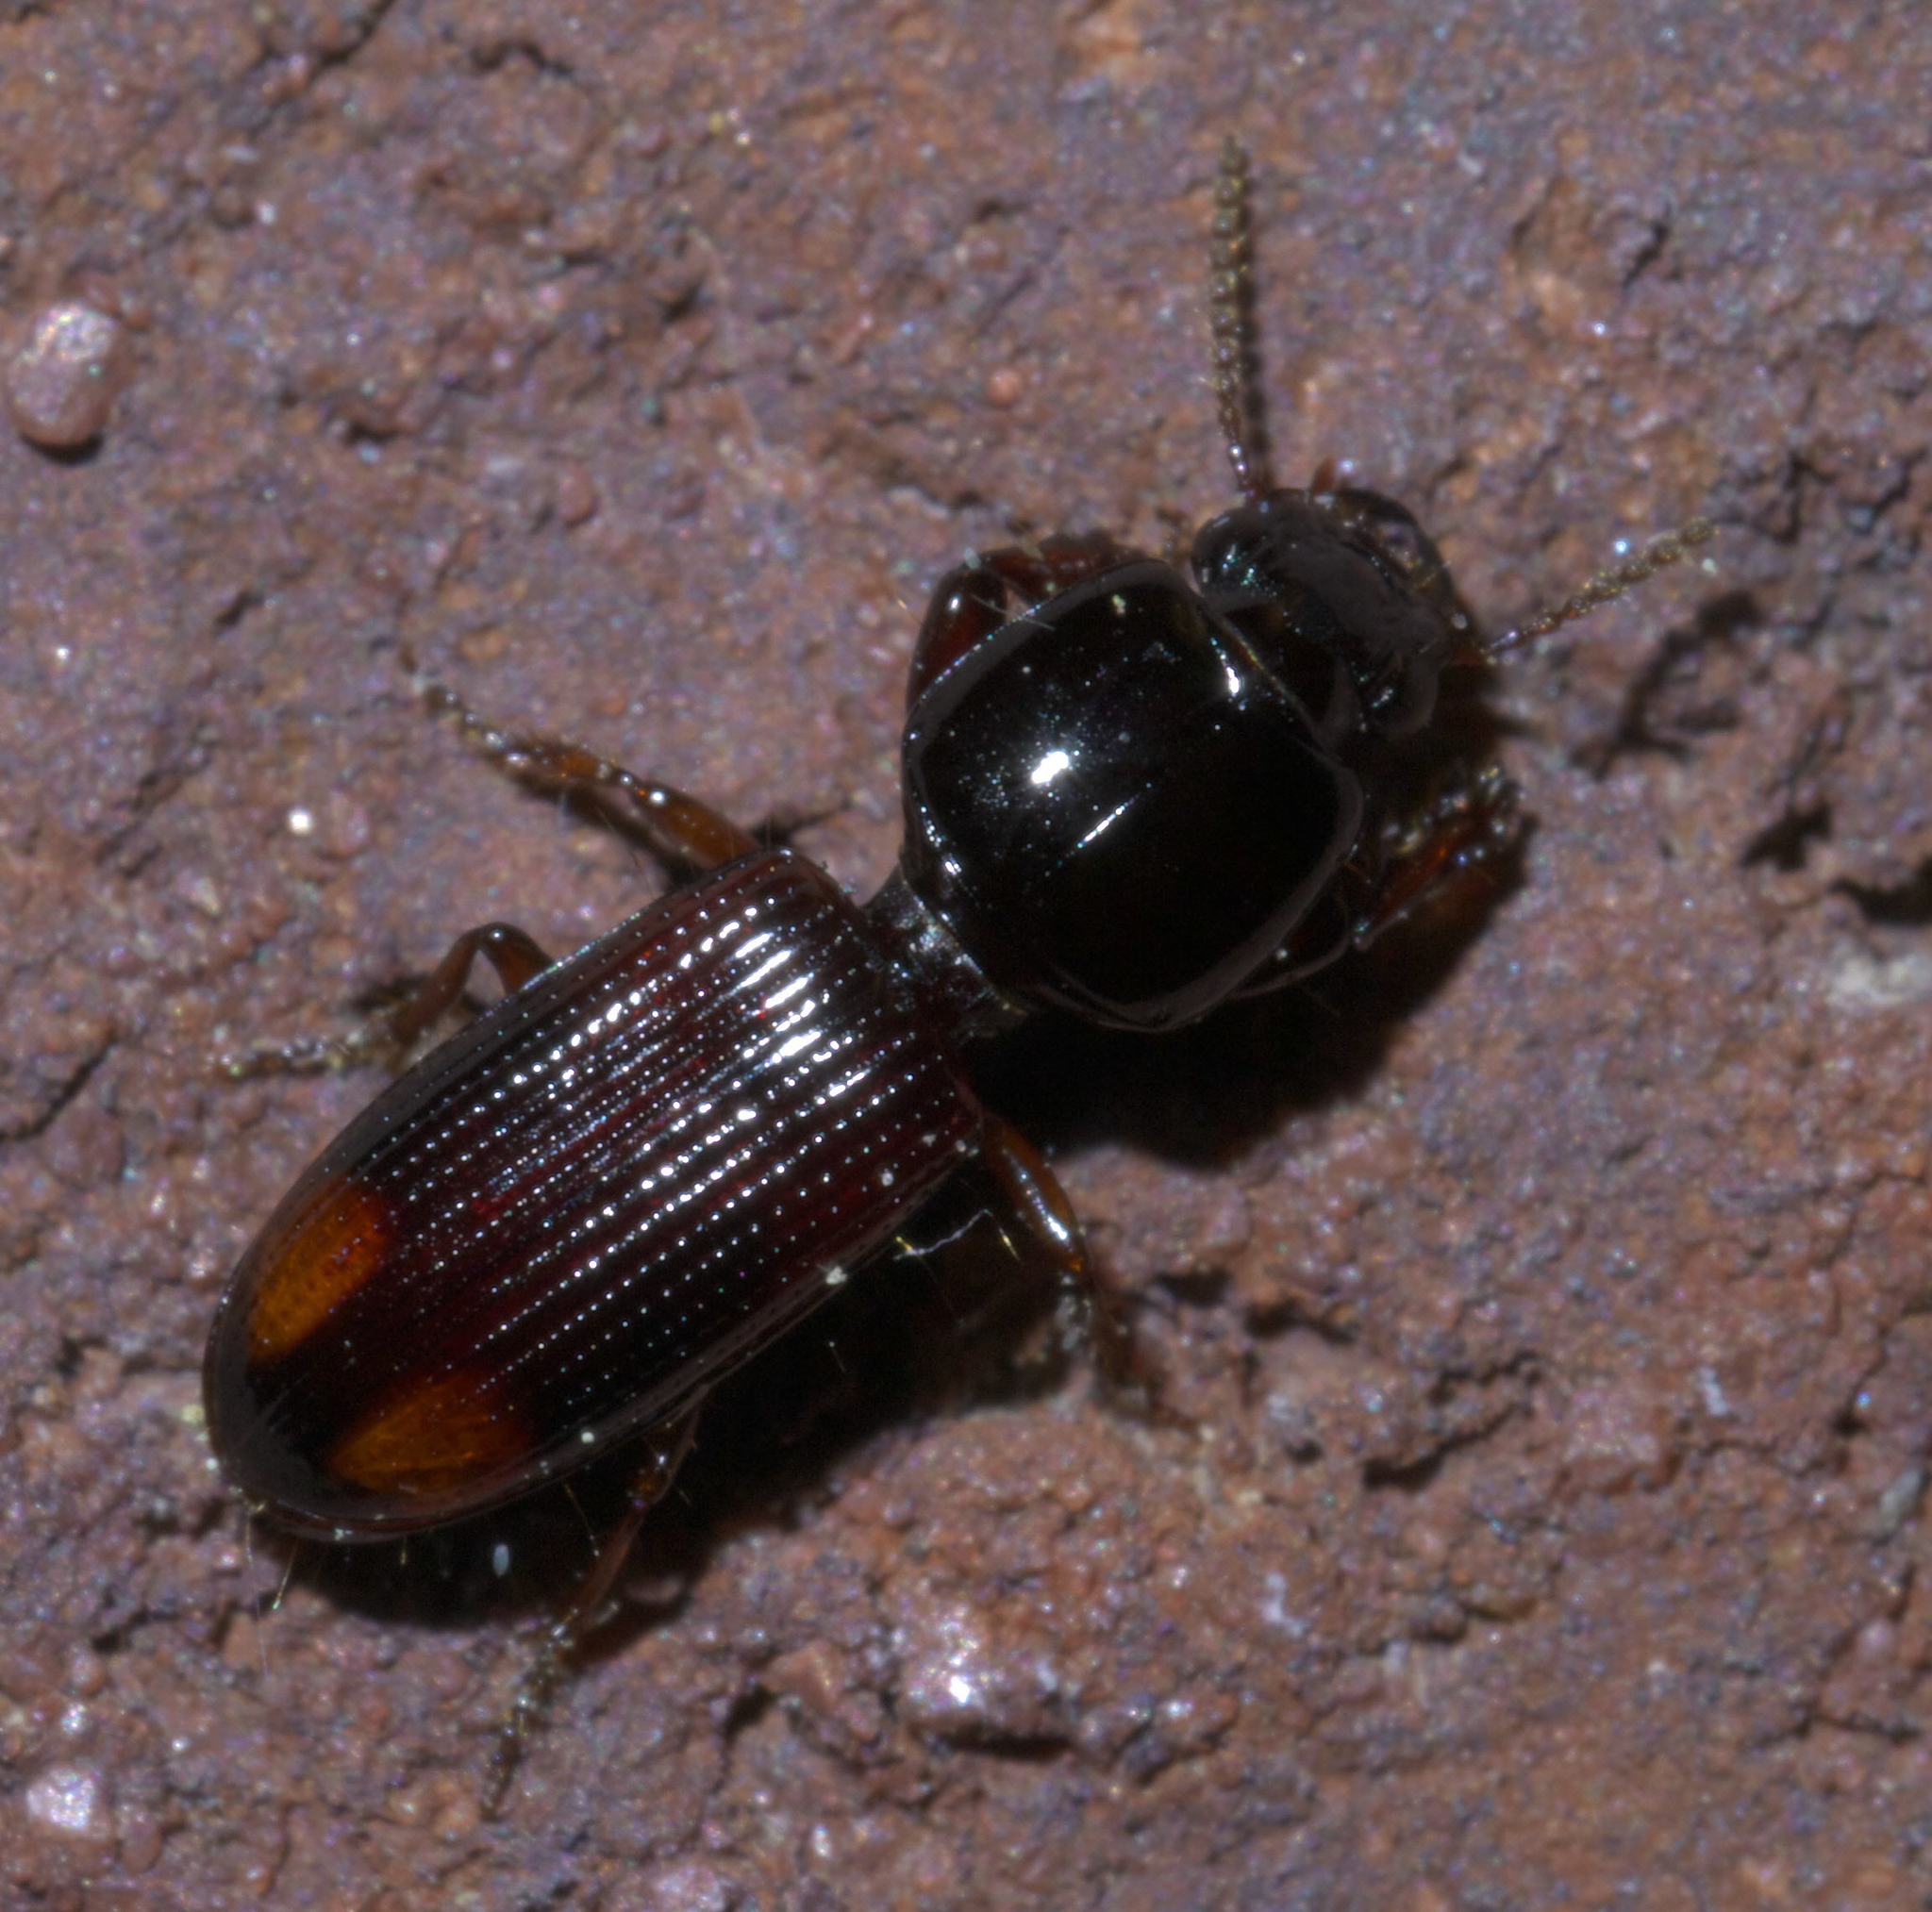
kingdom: Animalia
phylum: Arthropoda
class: Insecta
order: Coleoptera
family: Carabidae
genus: Clivina
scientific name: Clivina bipustulata
